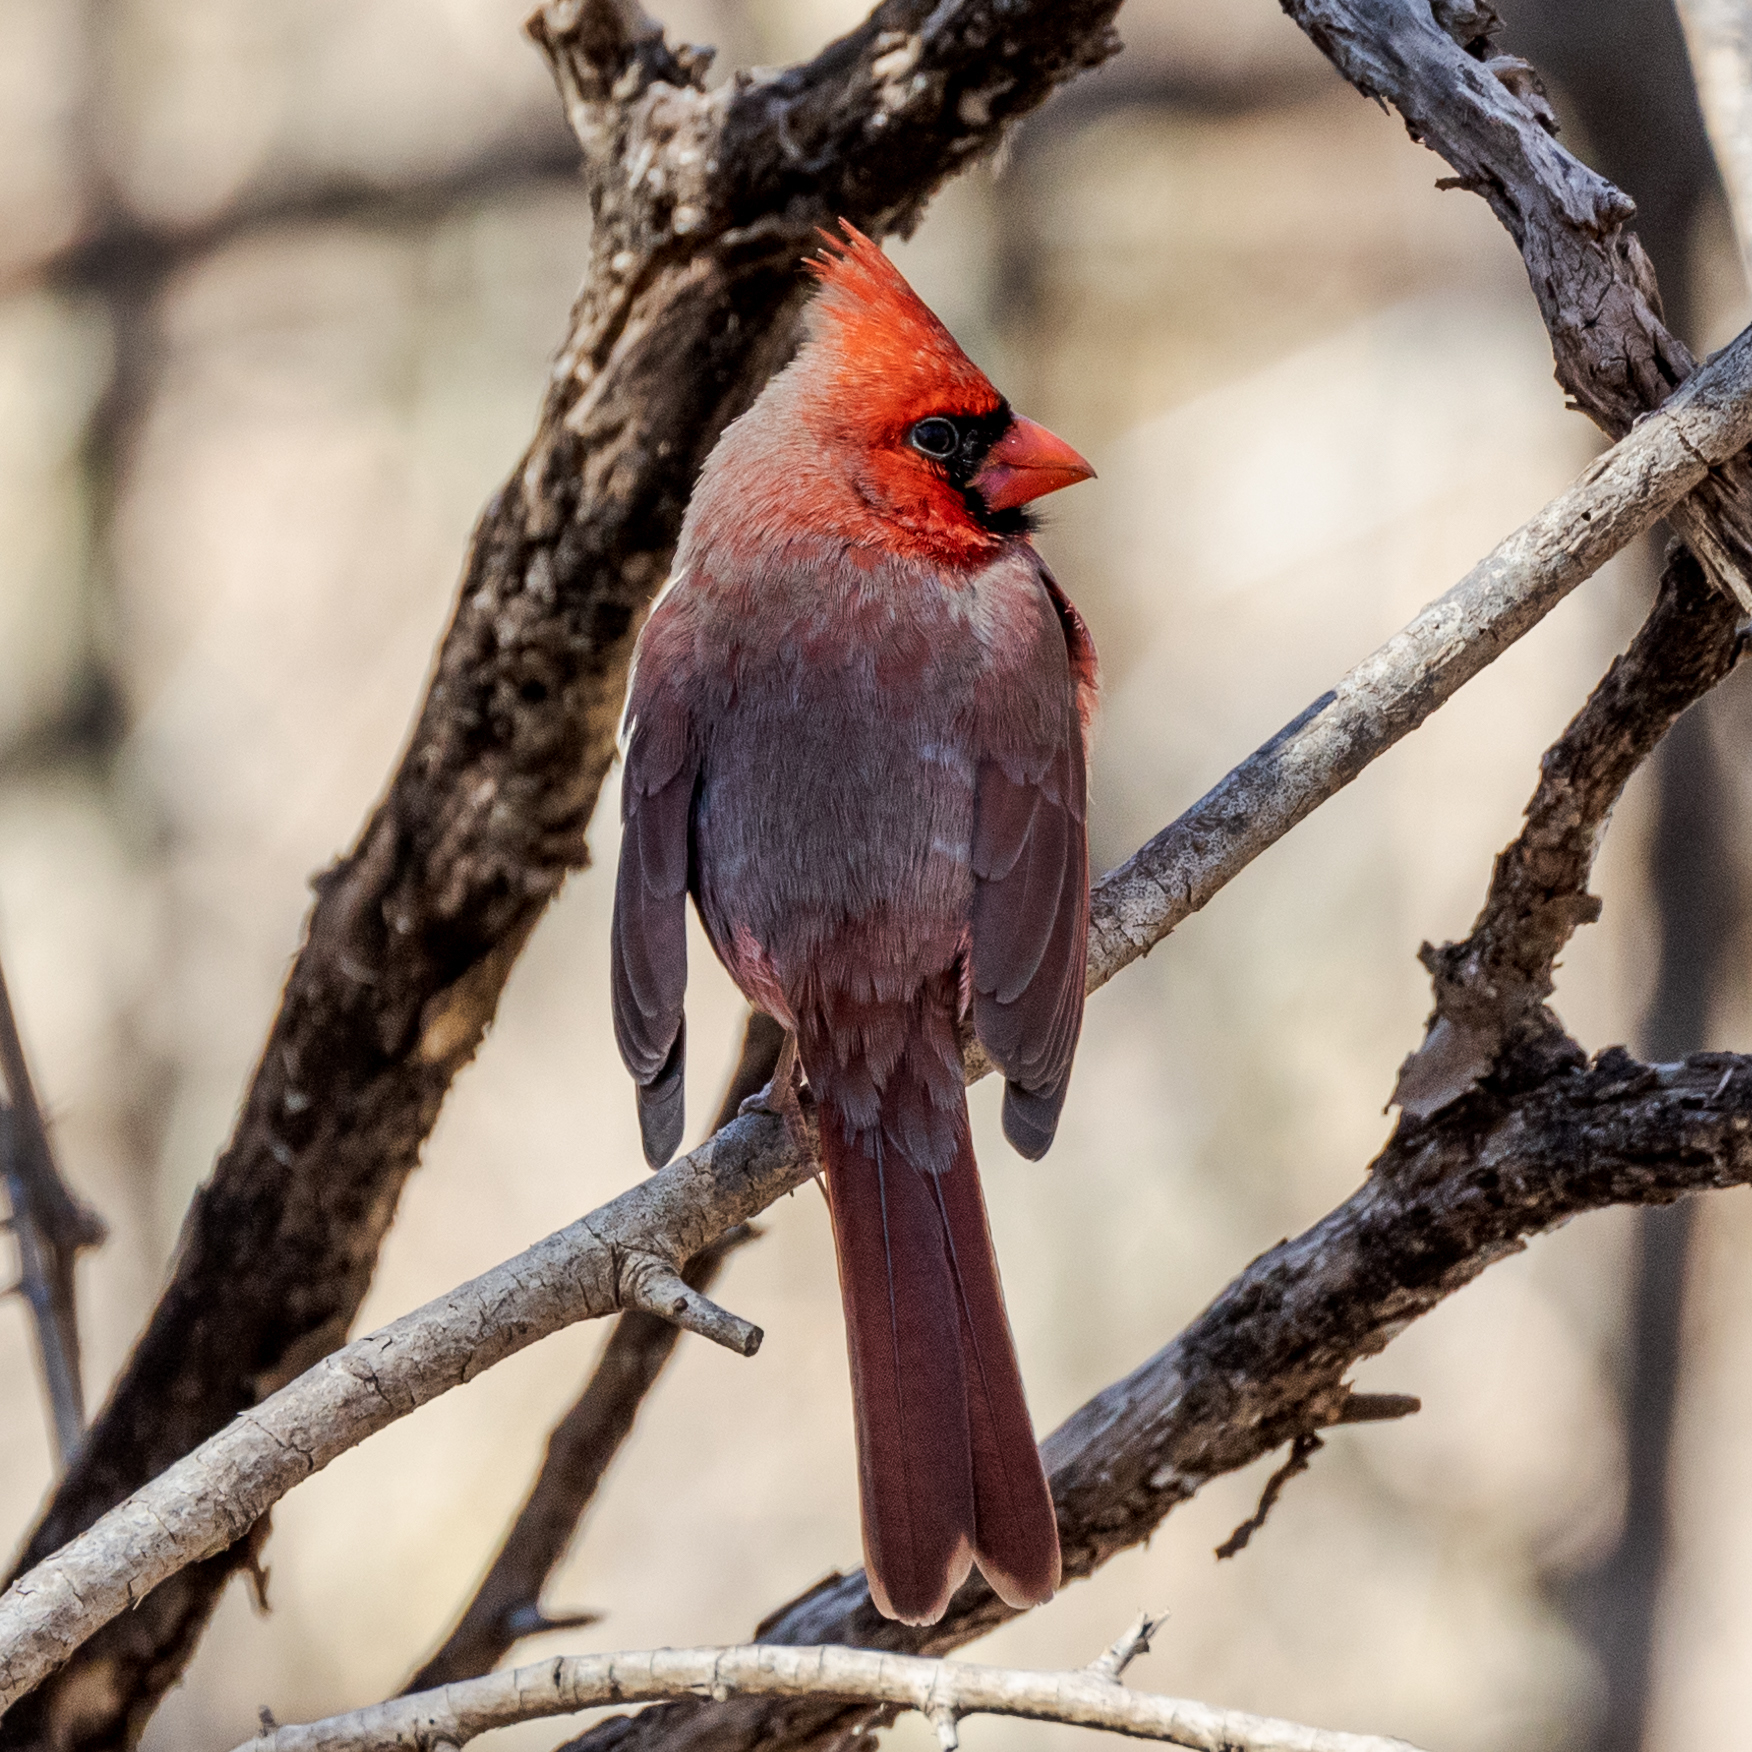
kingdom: Animalia
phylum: Chordata
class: Aves
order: Passeriformes
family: Cardinalidae
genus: Cardinalis
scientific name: Cardinalis cardinalis
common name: Northern cardinal
